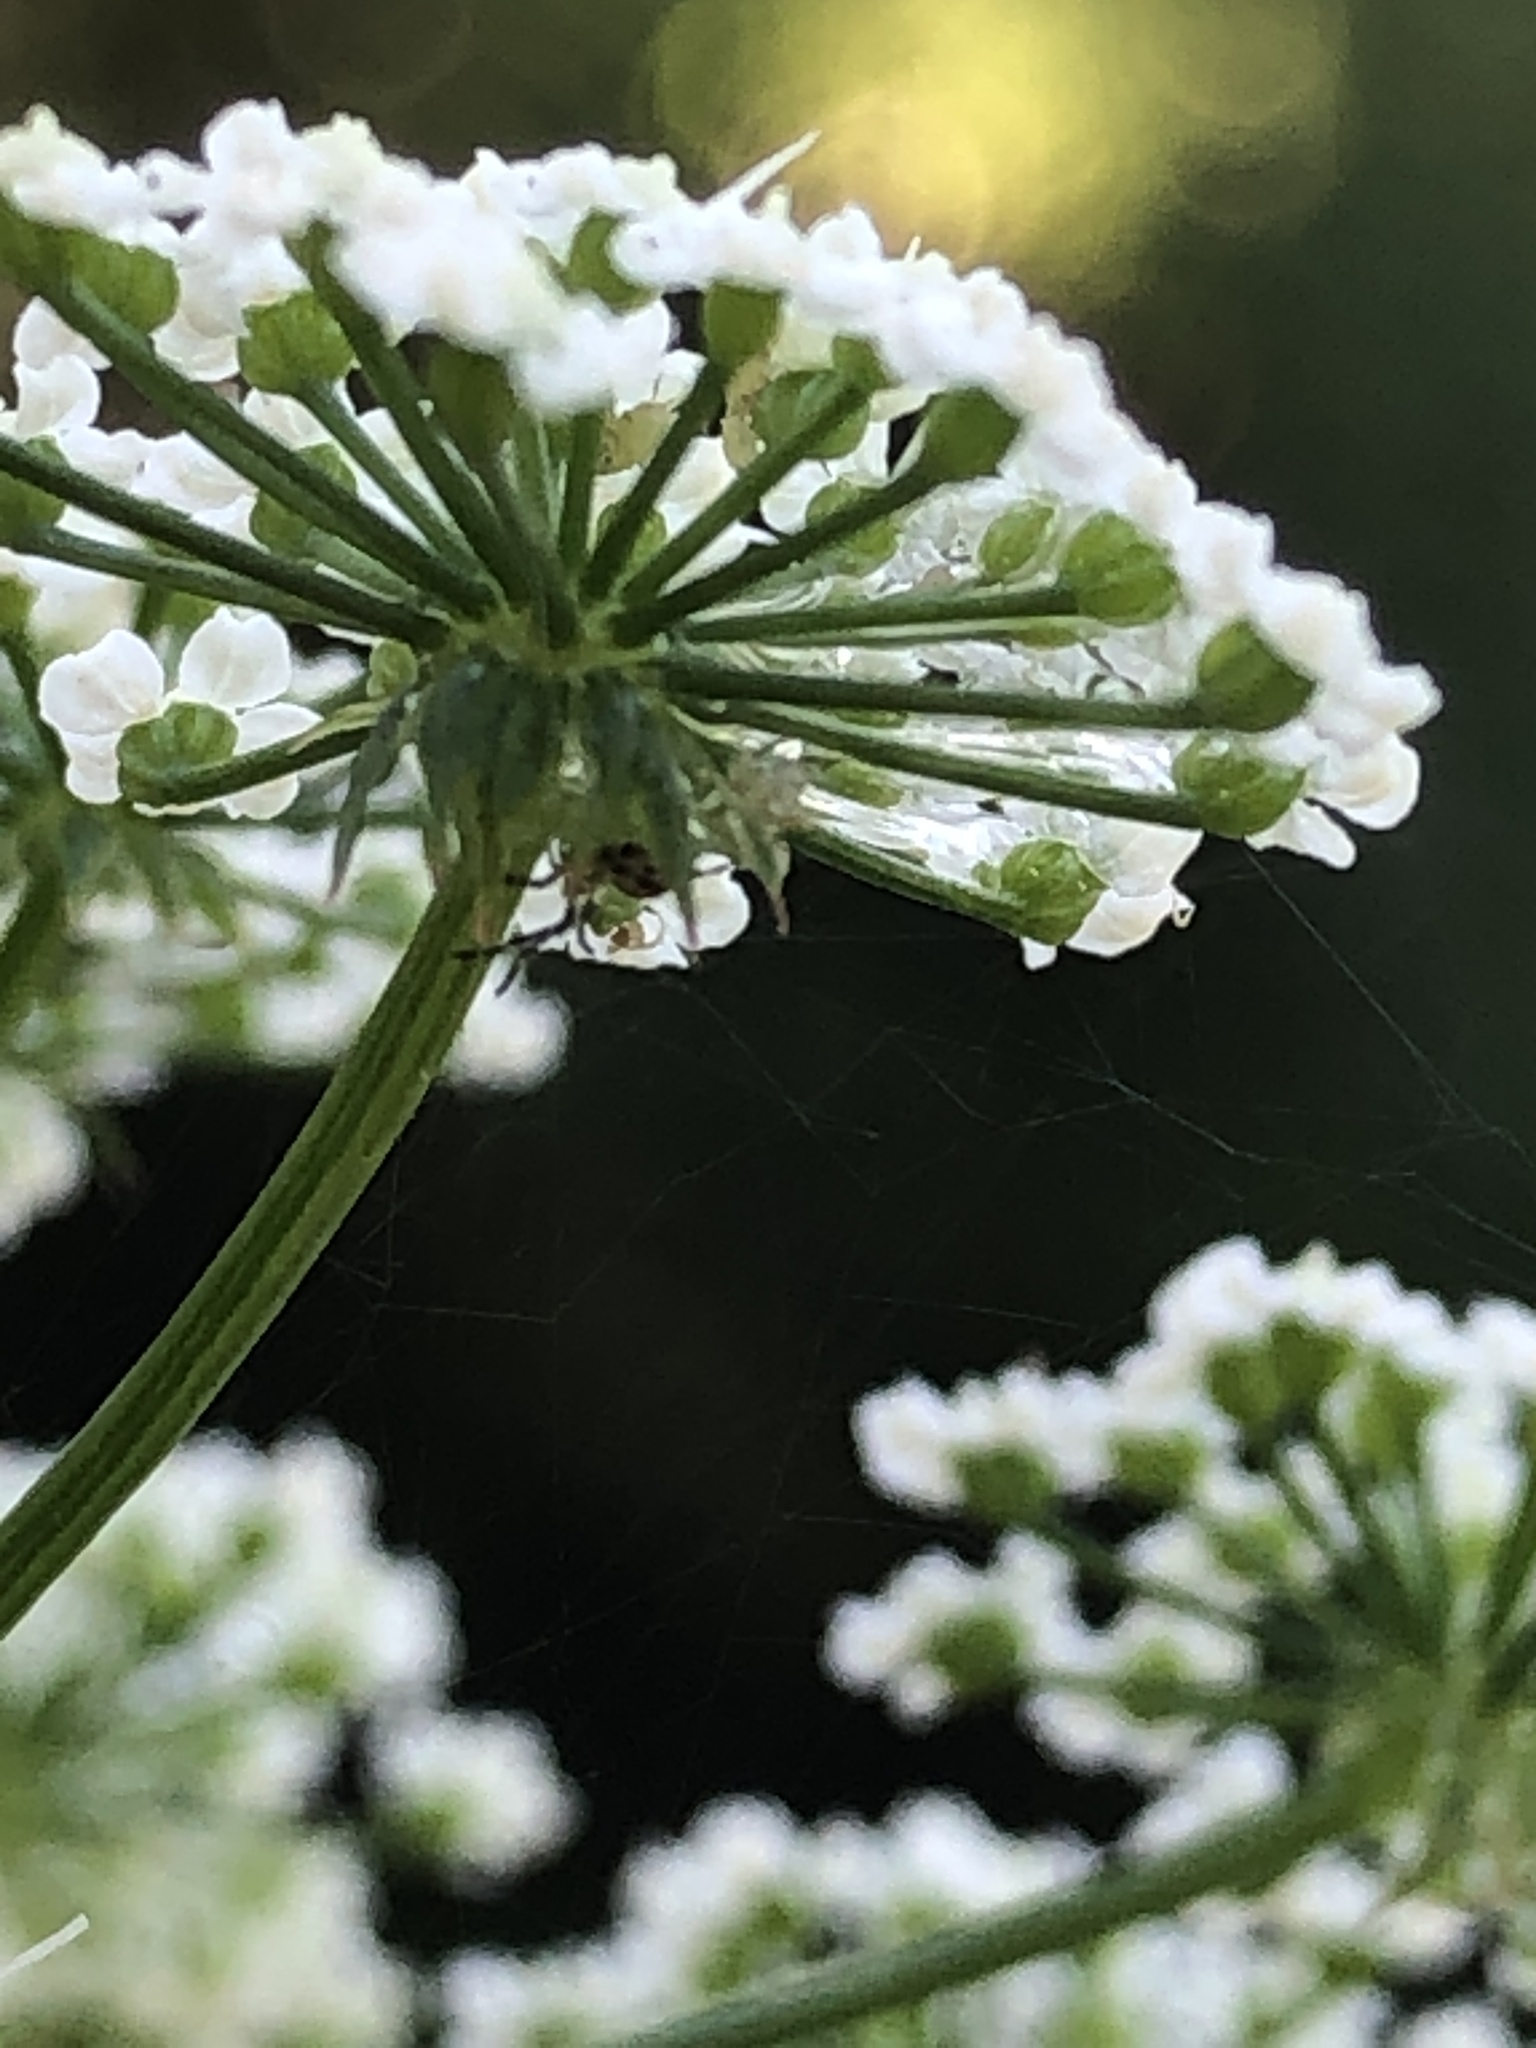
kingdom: Plantae
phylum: Tracheophyta
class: Magnoliopsida
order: Apiales
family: Apiaceae
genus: Sium
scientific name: Sium suave
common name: Hemlock water-parsnip
